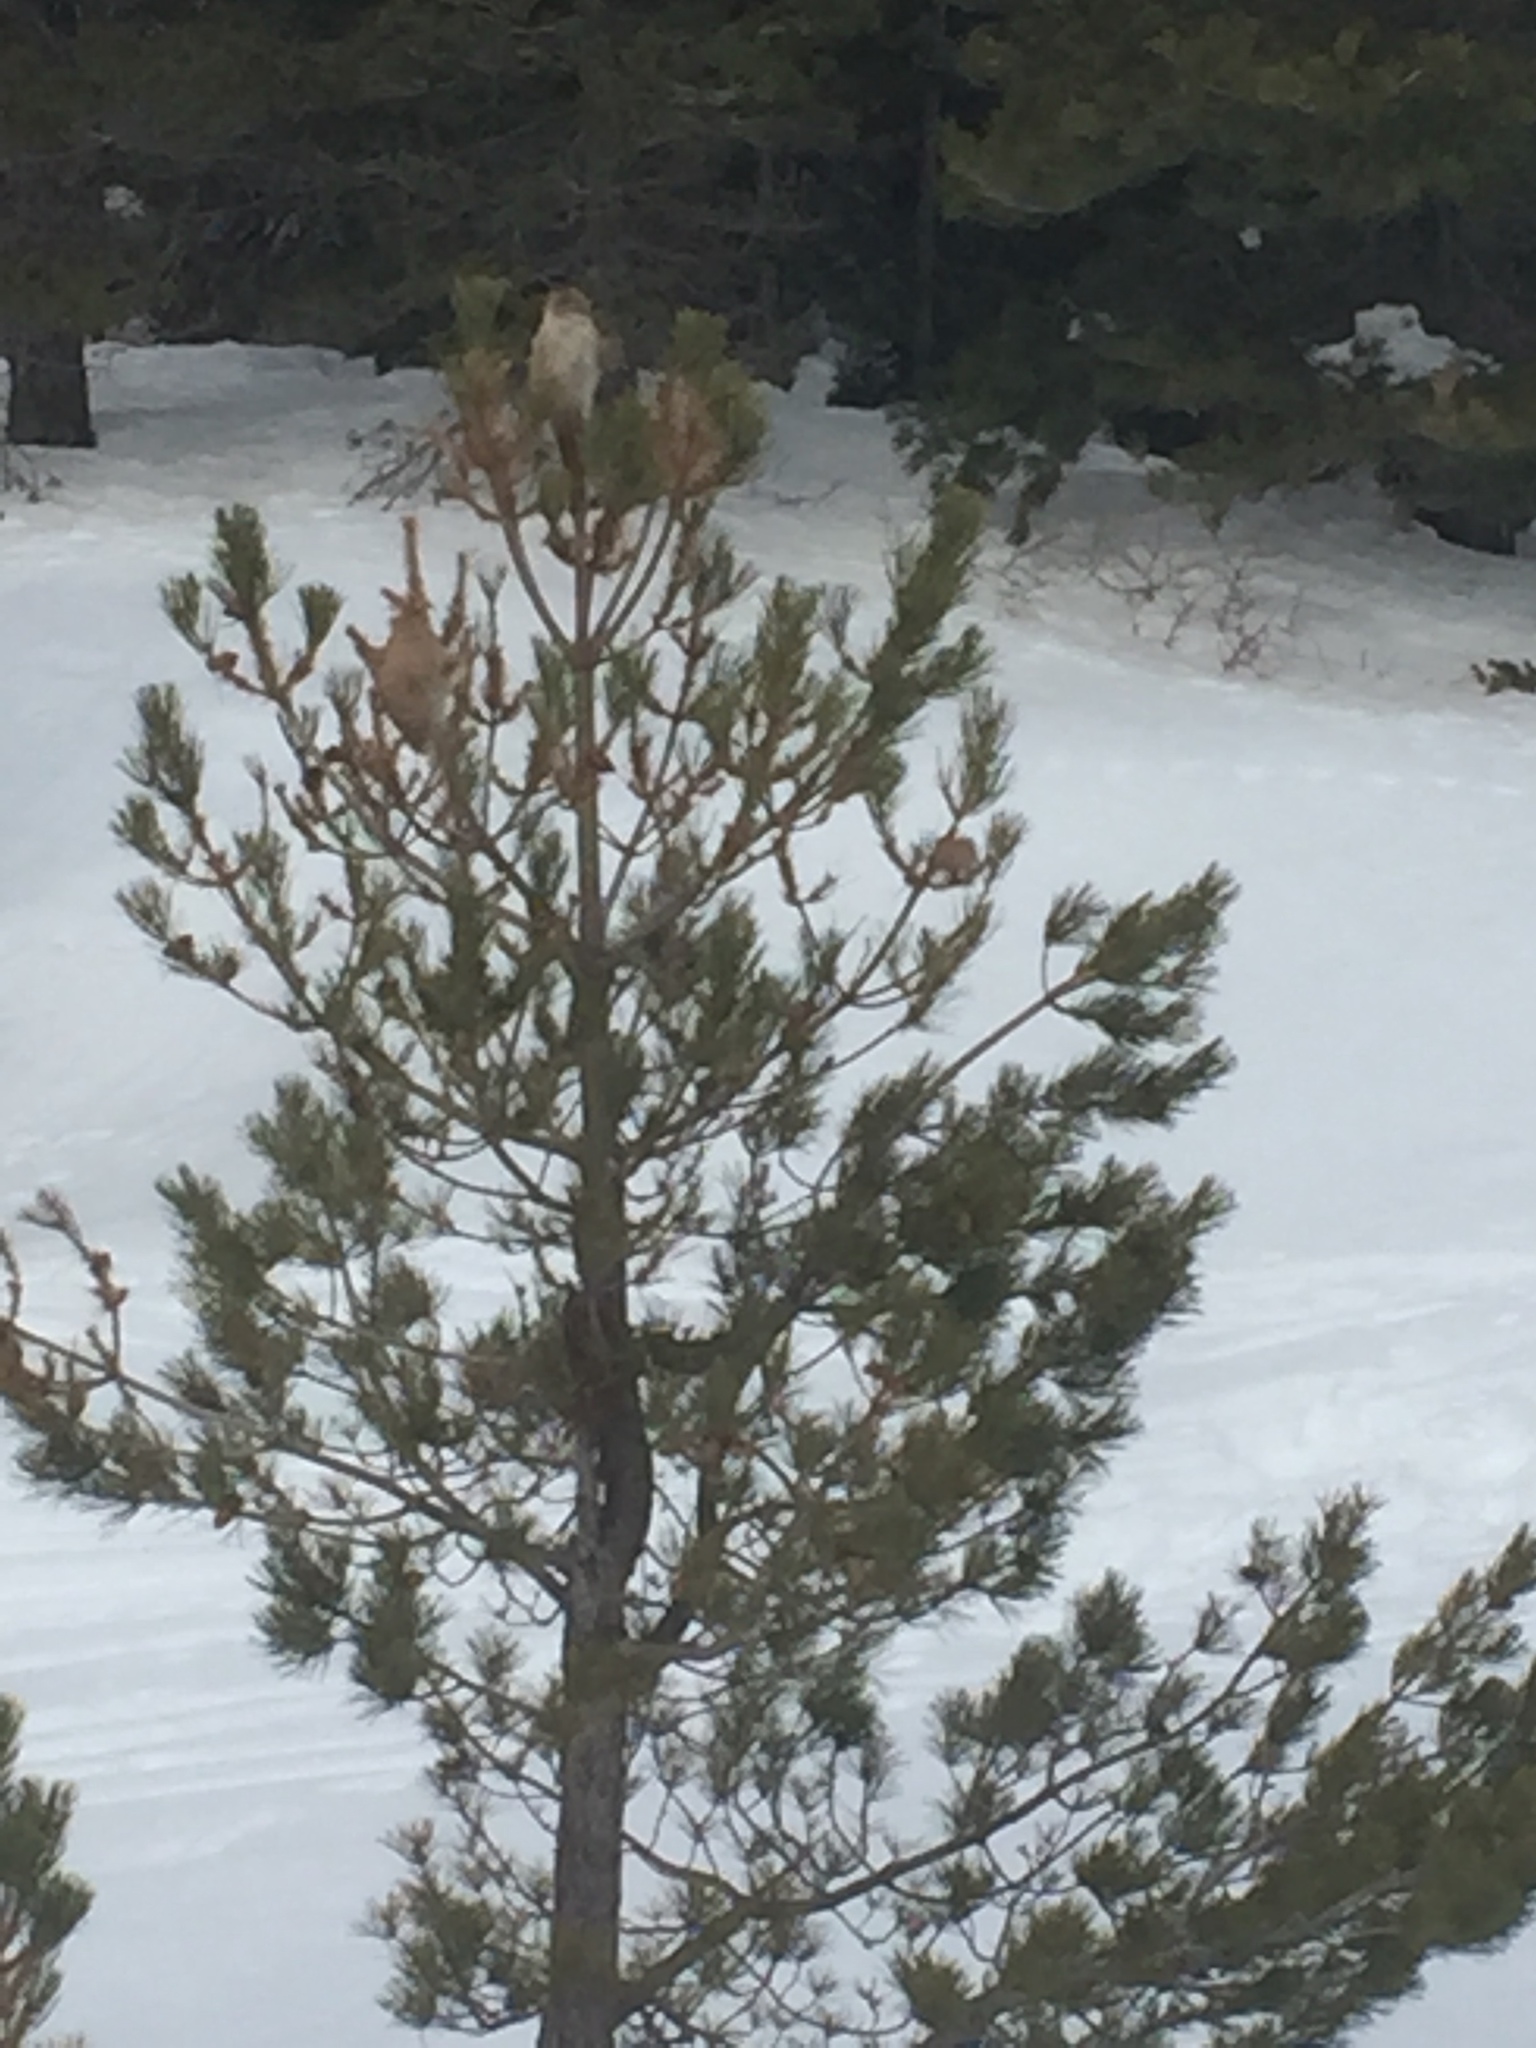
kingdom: Animalia
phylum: Arthropoda
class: Insecta
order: Lepidoptera
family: Notodontidae
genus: Thaumetopoea
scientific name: Thaumetopoea pityocampa
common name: Pine processionary
